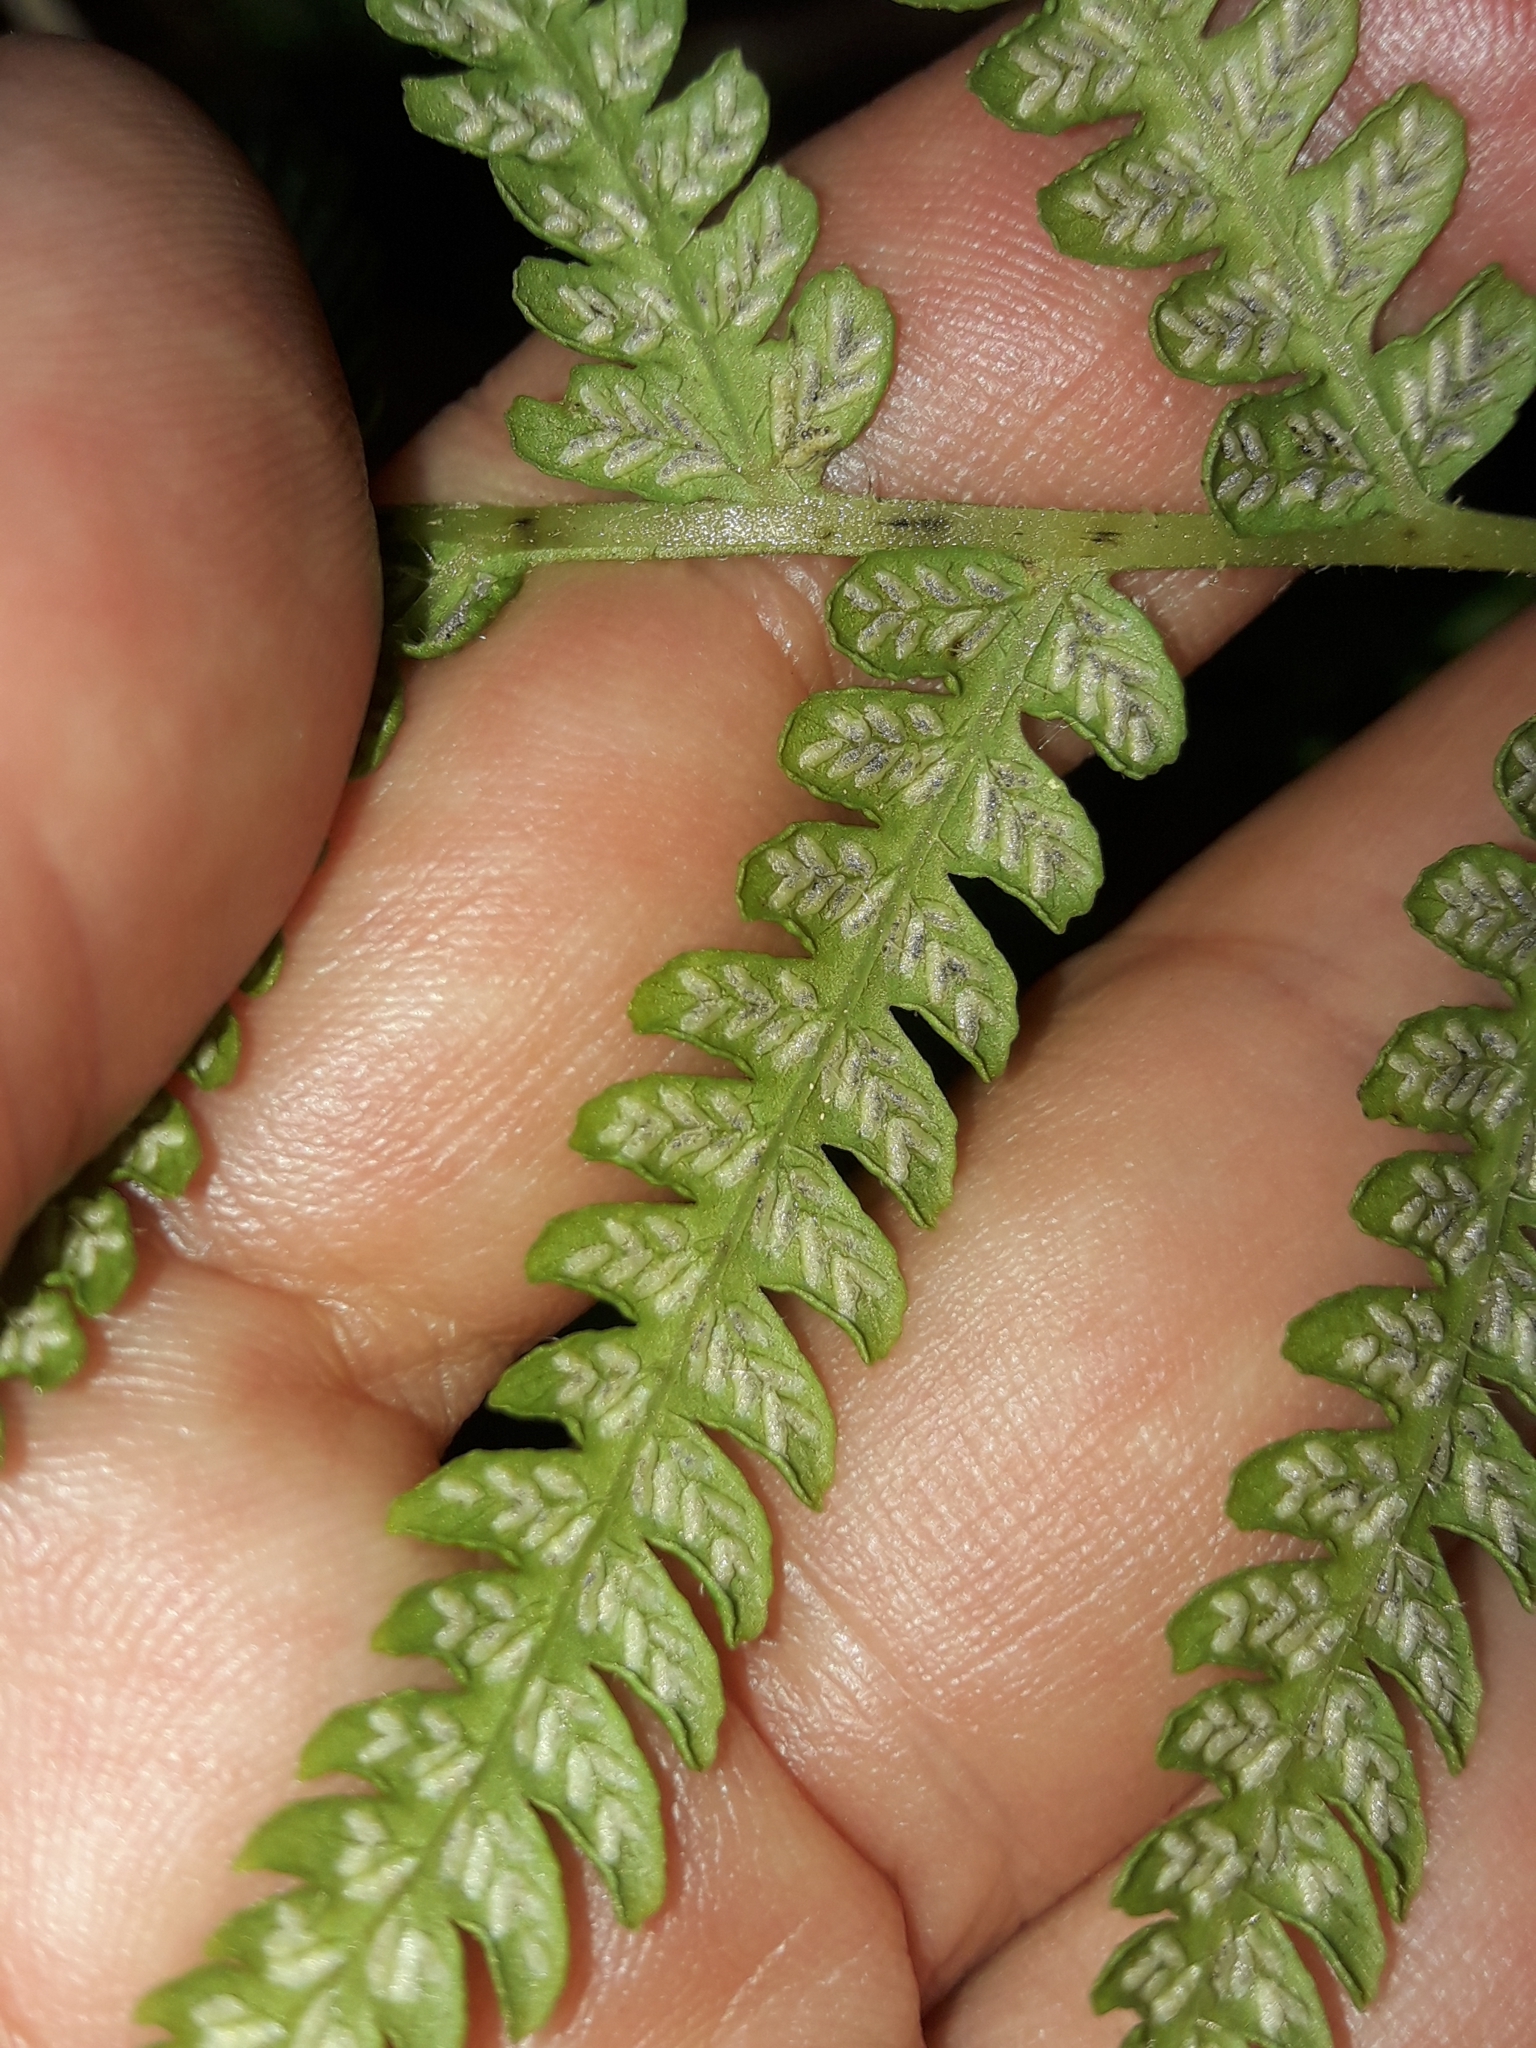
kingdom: Plantae
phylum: Tracheophyta
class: Polypodiopsida
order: Polypodiales
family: Athyriaceae
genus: Deparia
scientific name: Deparia petersenii
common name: Japanese false spleenwort
